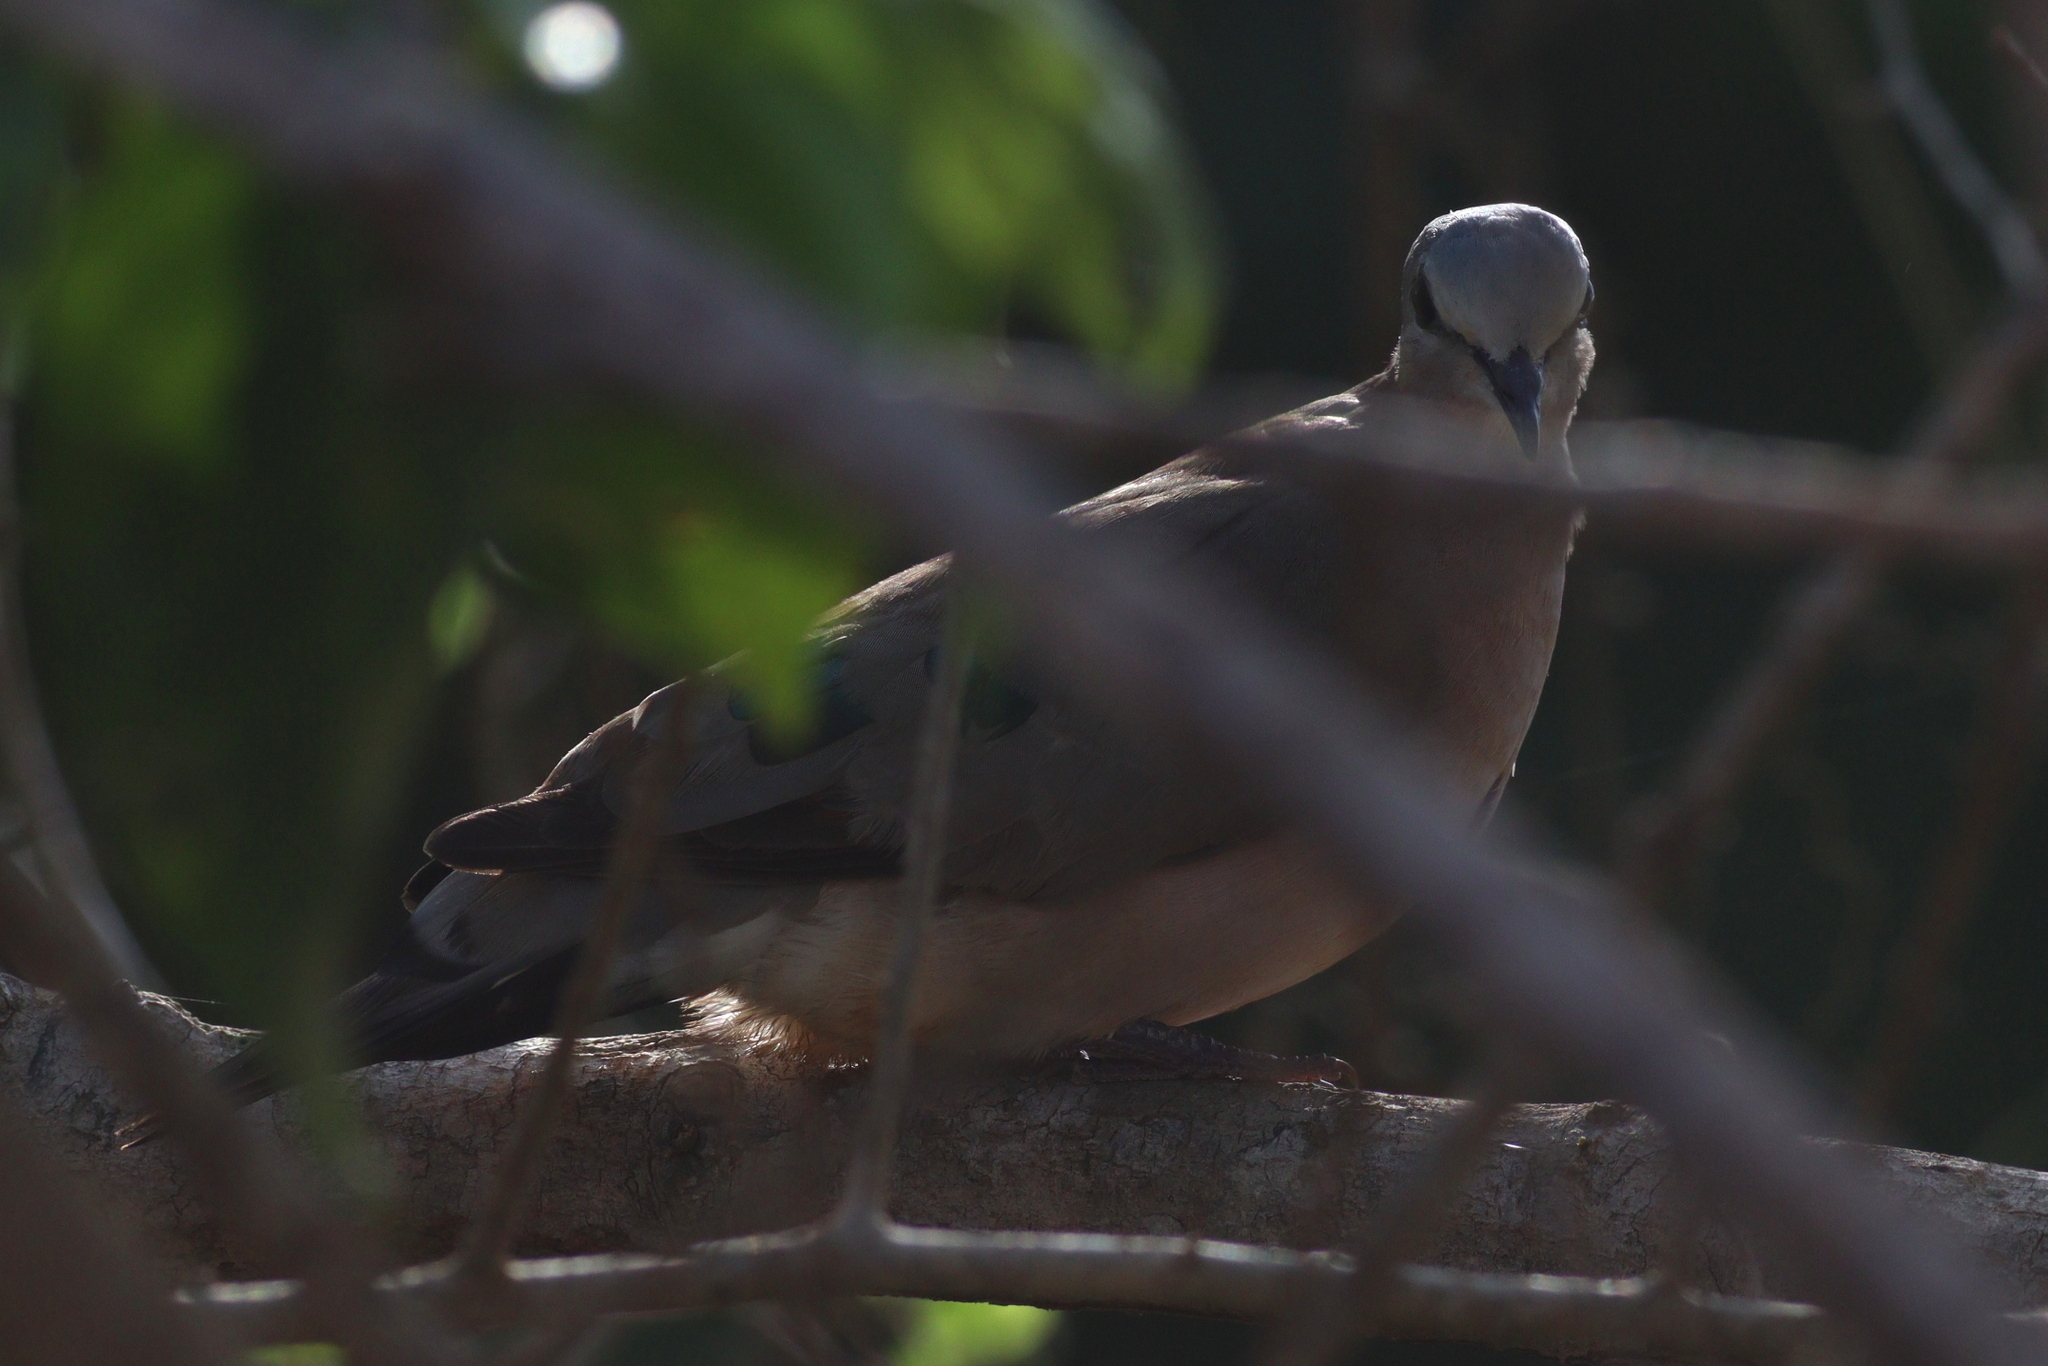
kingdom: Animalia
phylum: Chordata
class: Aves
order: Columbiformes
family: Columbidae
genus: Turtur
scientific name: Turtur chalcospilos
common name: Emerald-spotted wood dove
